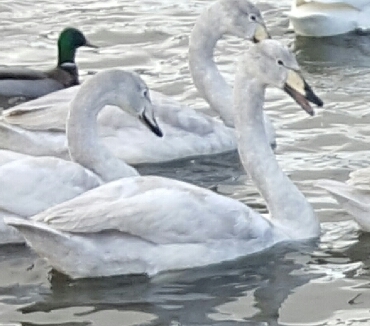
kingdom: Animalia
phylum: Chordata
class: Aves
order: Anseriformes
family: Anatidae
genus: Cygnus
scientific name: Cygnus cygnus
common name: Whooper swan
